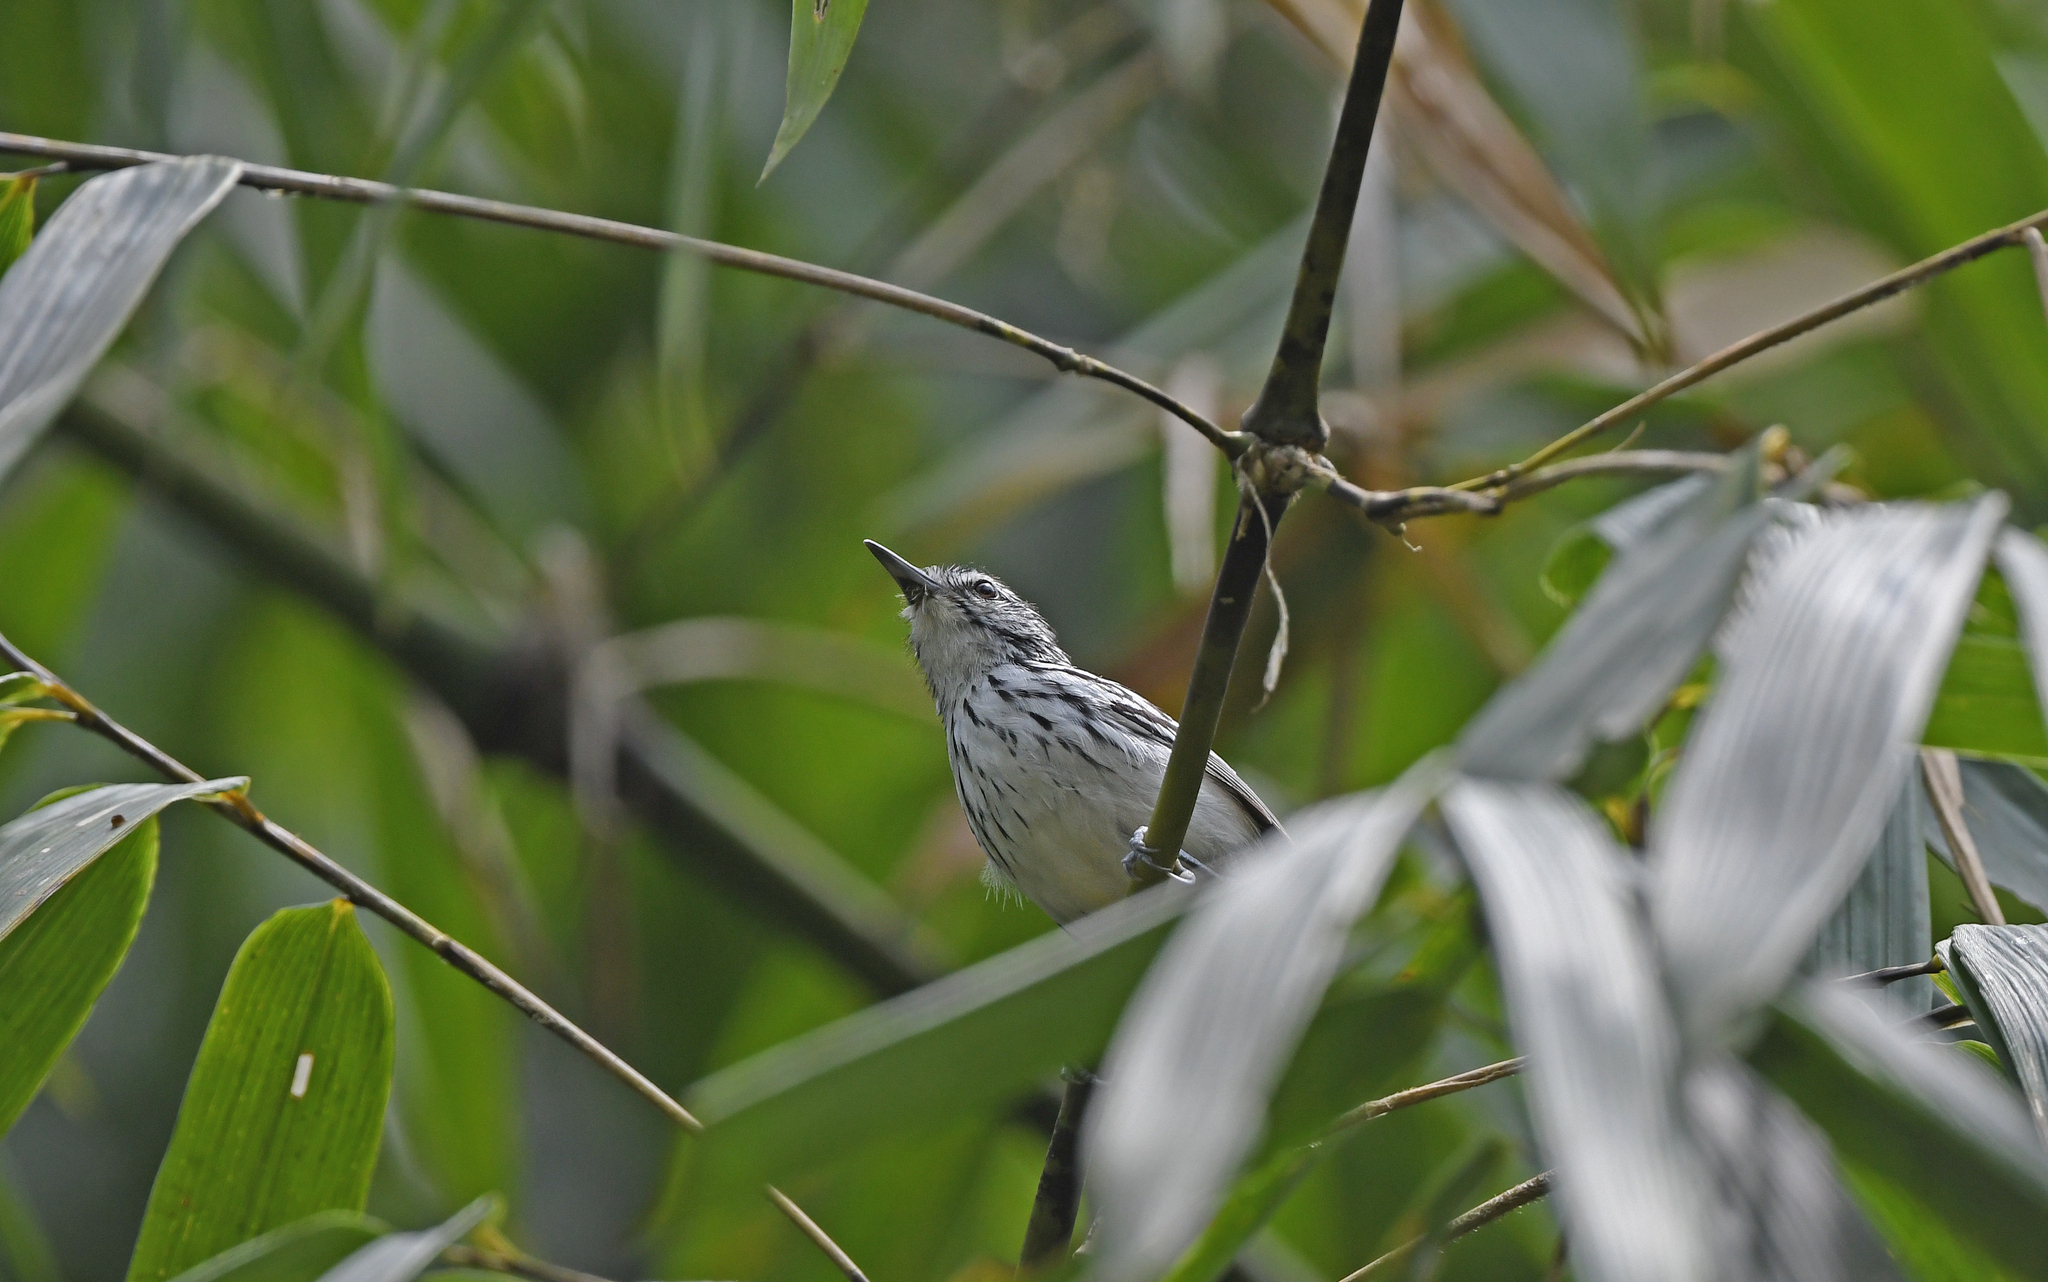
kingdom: Animalia
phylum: Chordata
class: Aves
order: Passeriformes
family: Thamnophilidae
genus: Myrmotherula
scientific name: Myrmotherula longicauda
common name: Stripe-chested antwren
